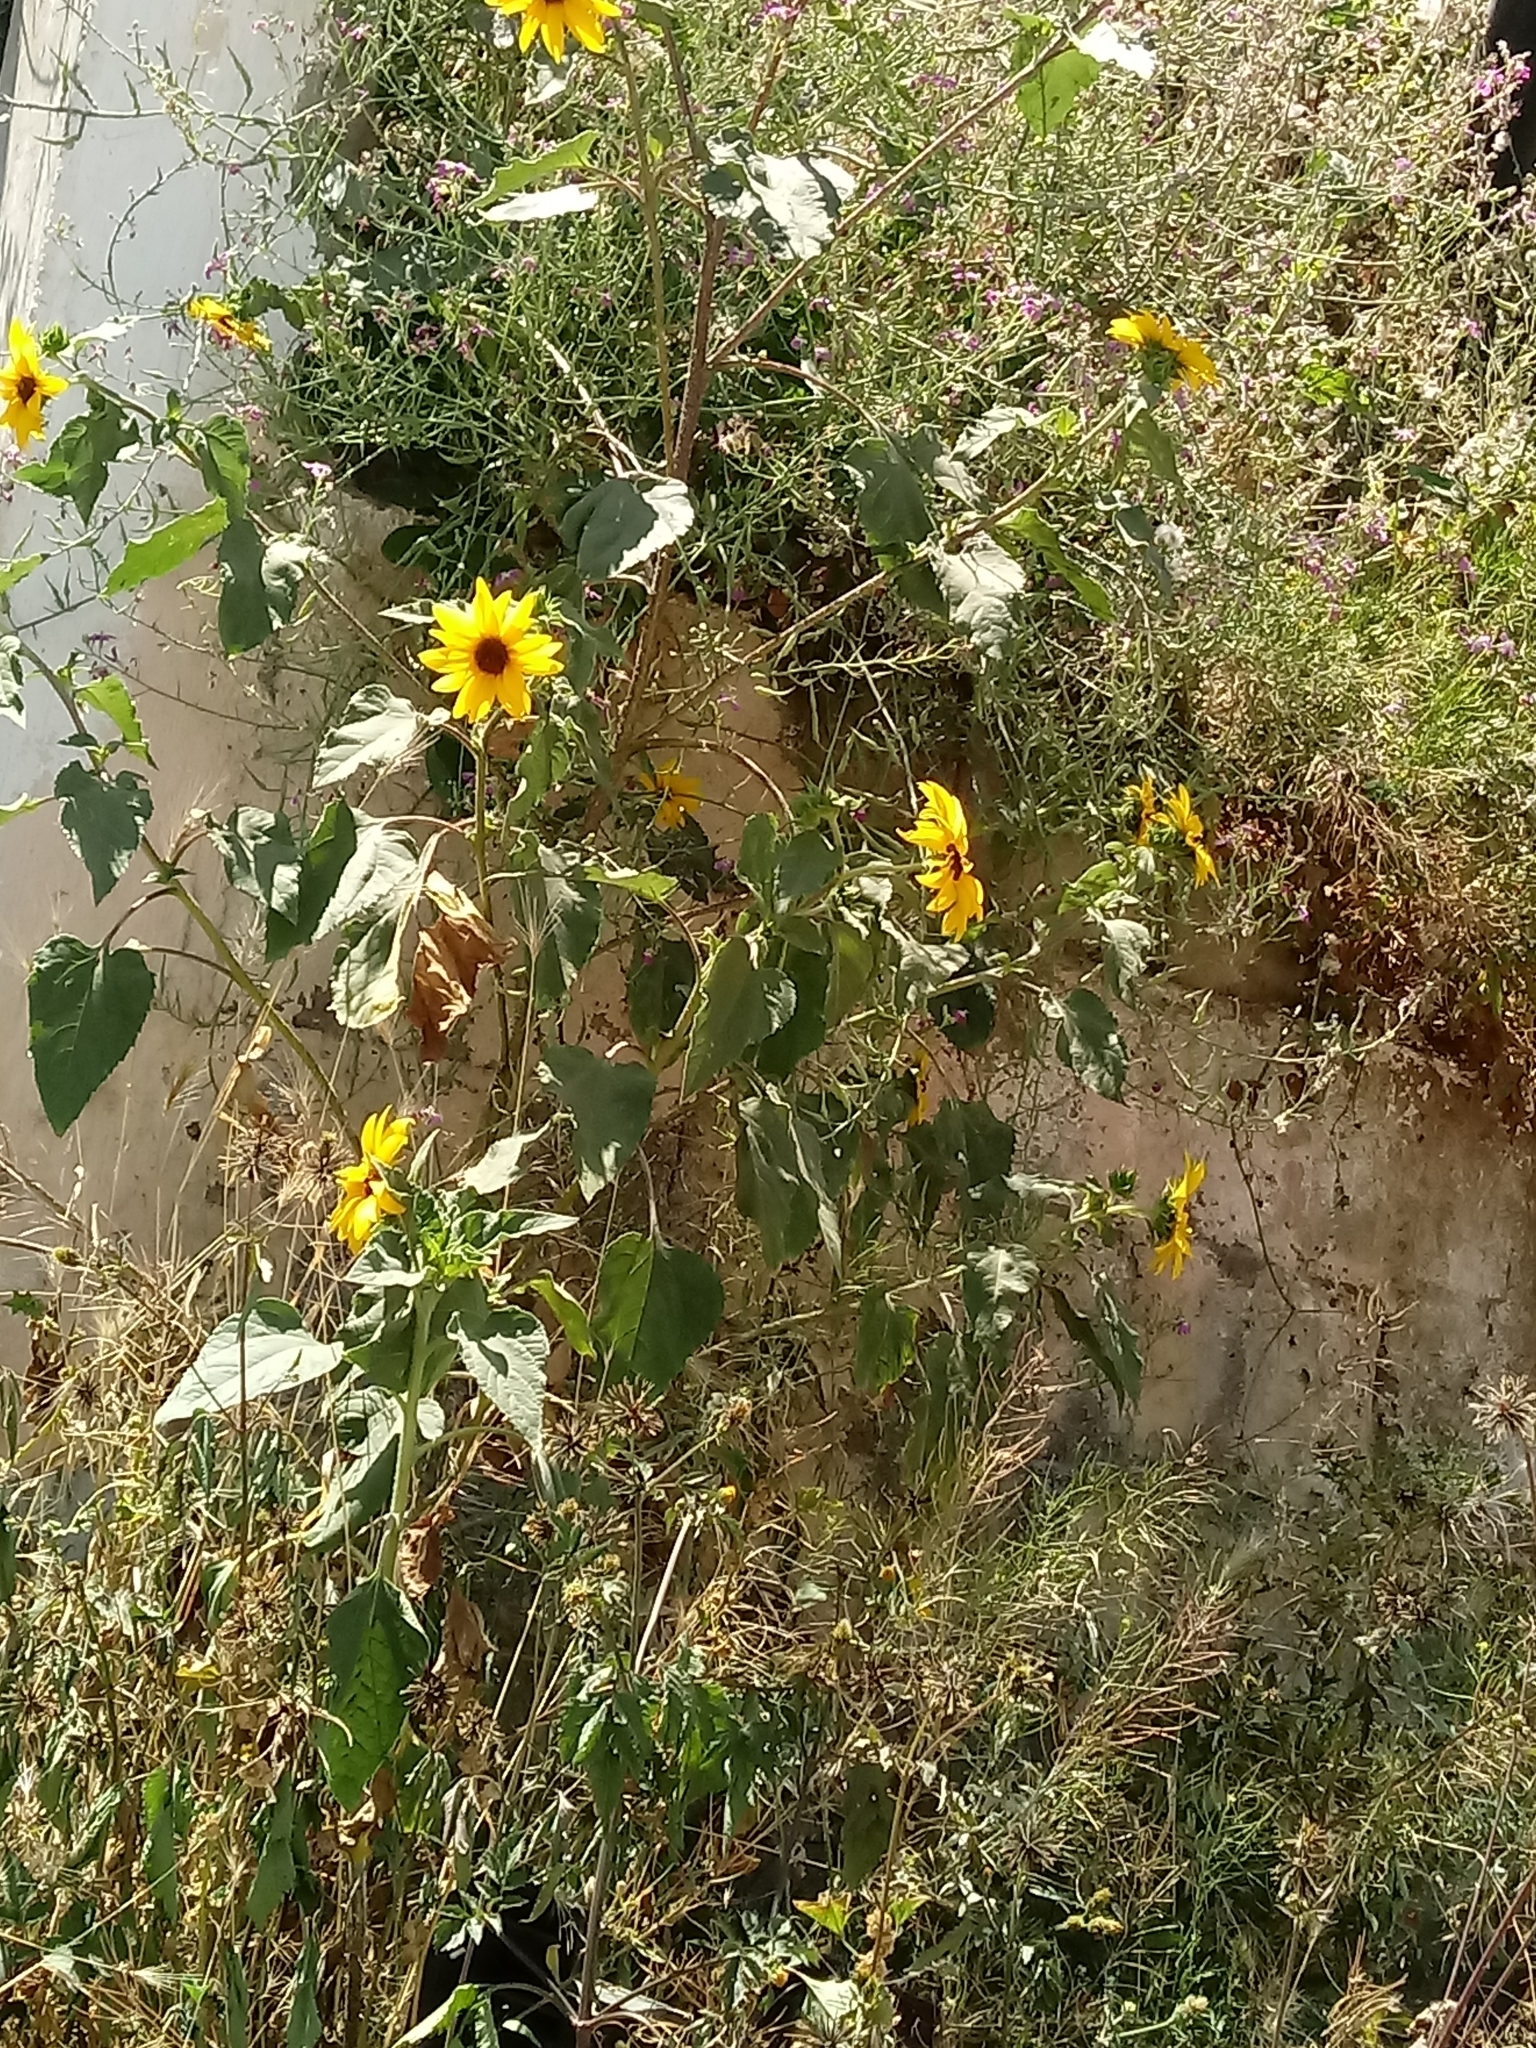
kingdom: Plantae
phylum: Tracheophyta
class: Magnoliopsida
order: Asterales
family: Asteraceae
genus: Helianthus
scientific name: Helianthus annuus
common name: Sunflower
